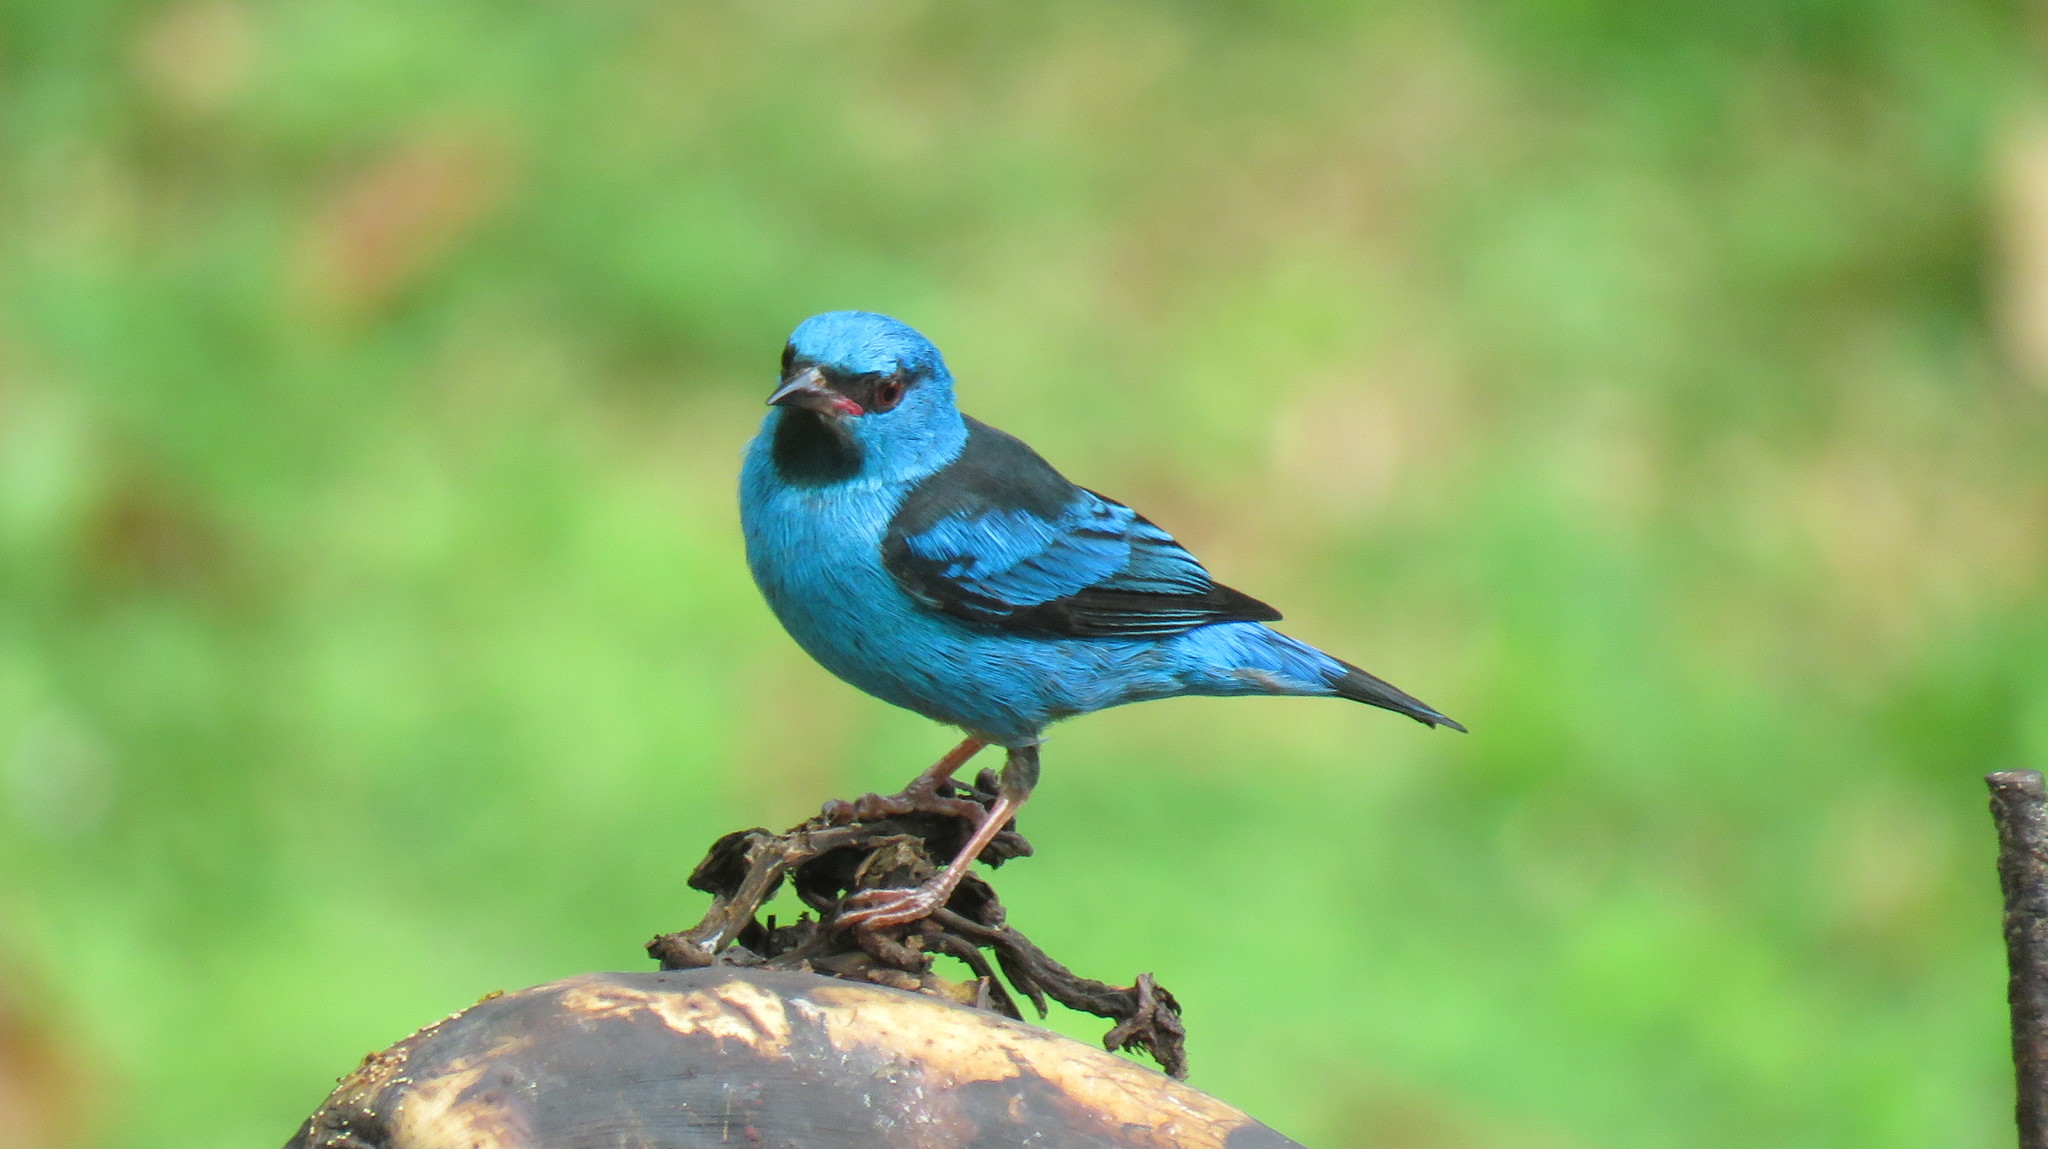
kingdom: Animalia
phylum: Chordata
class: Aves
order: Passeriformes
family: Thraupidae
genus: Dacnis
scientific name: Dacnis cayana
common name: Blue dacnis
